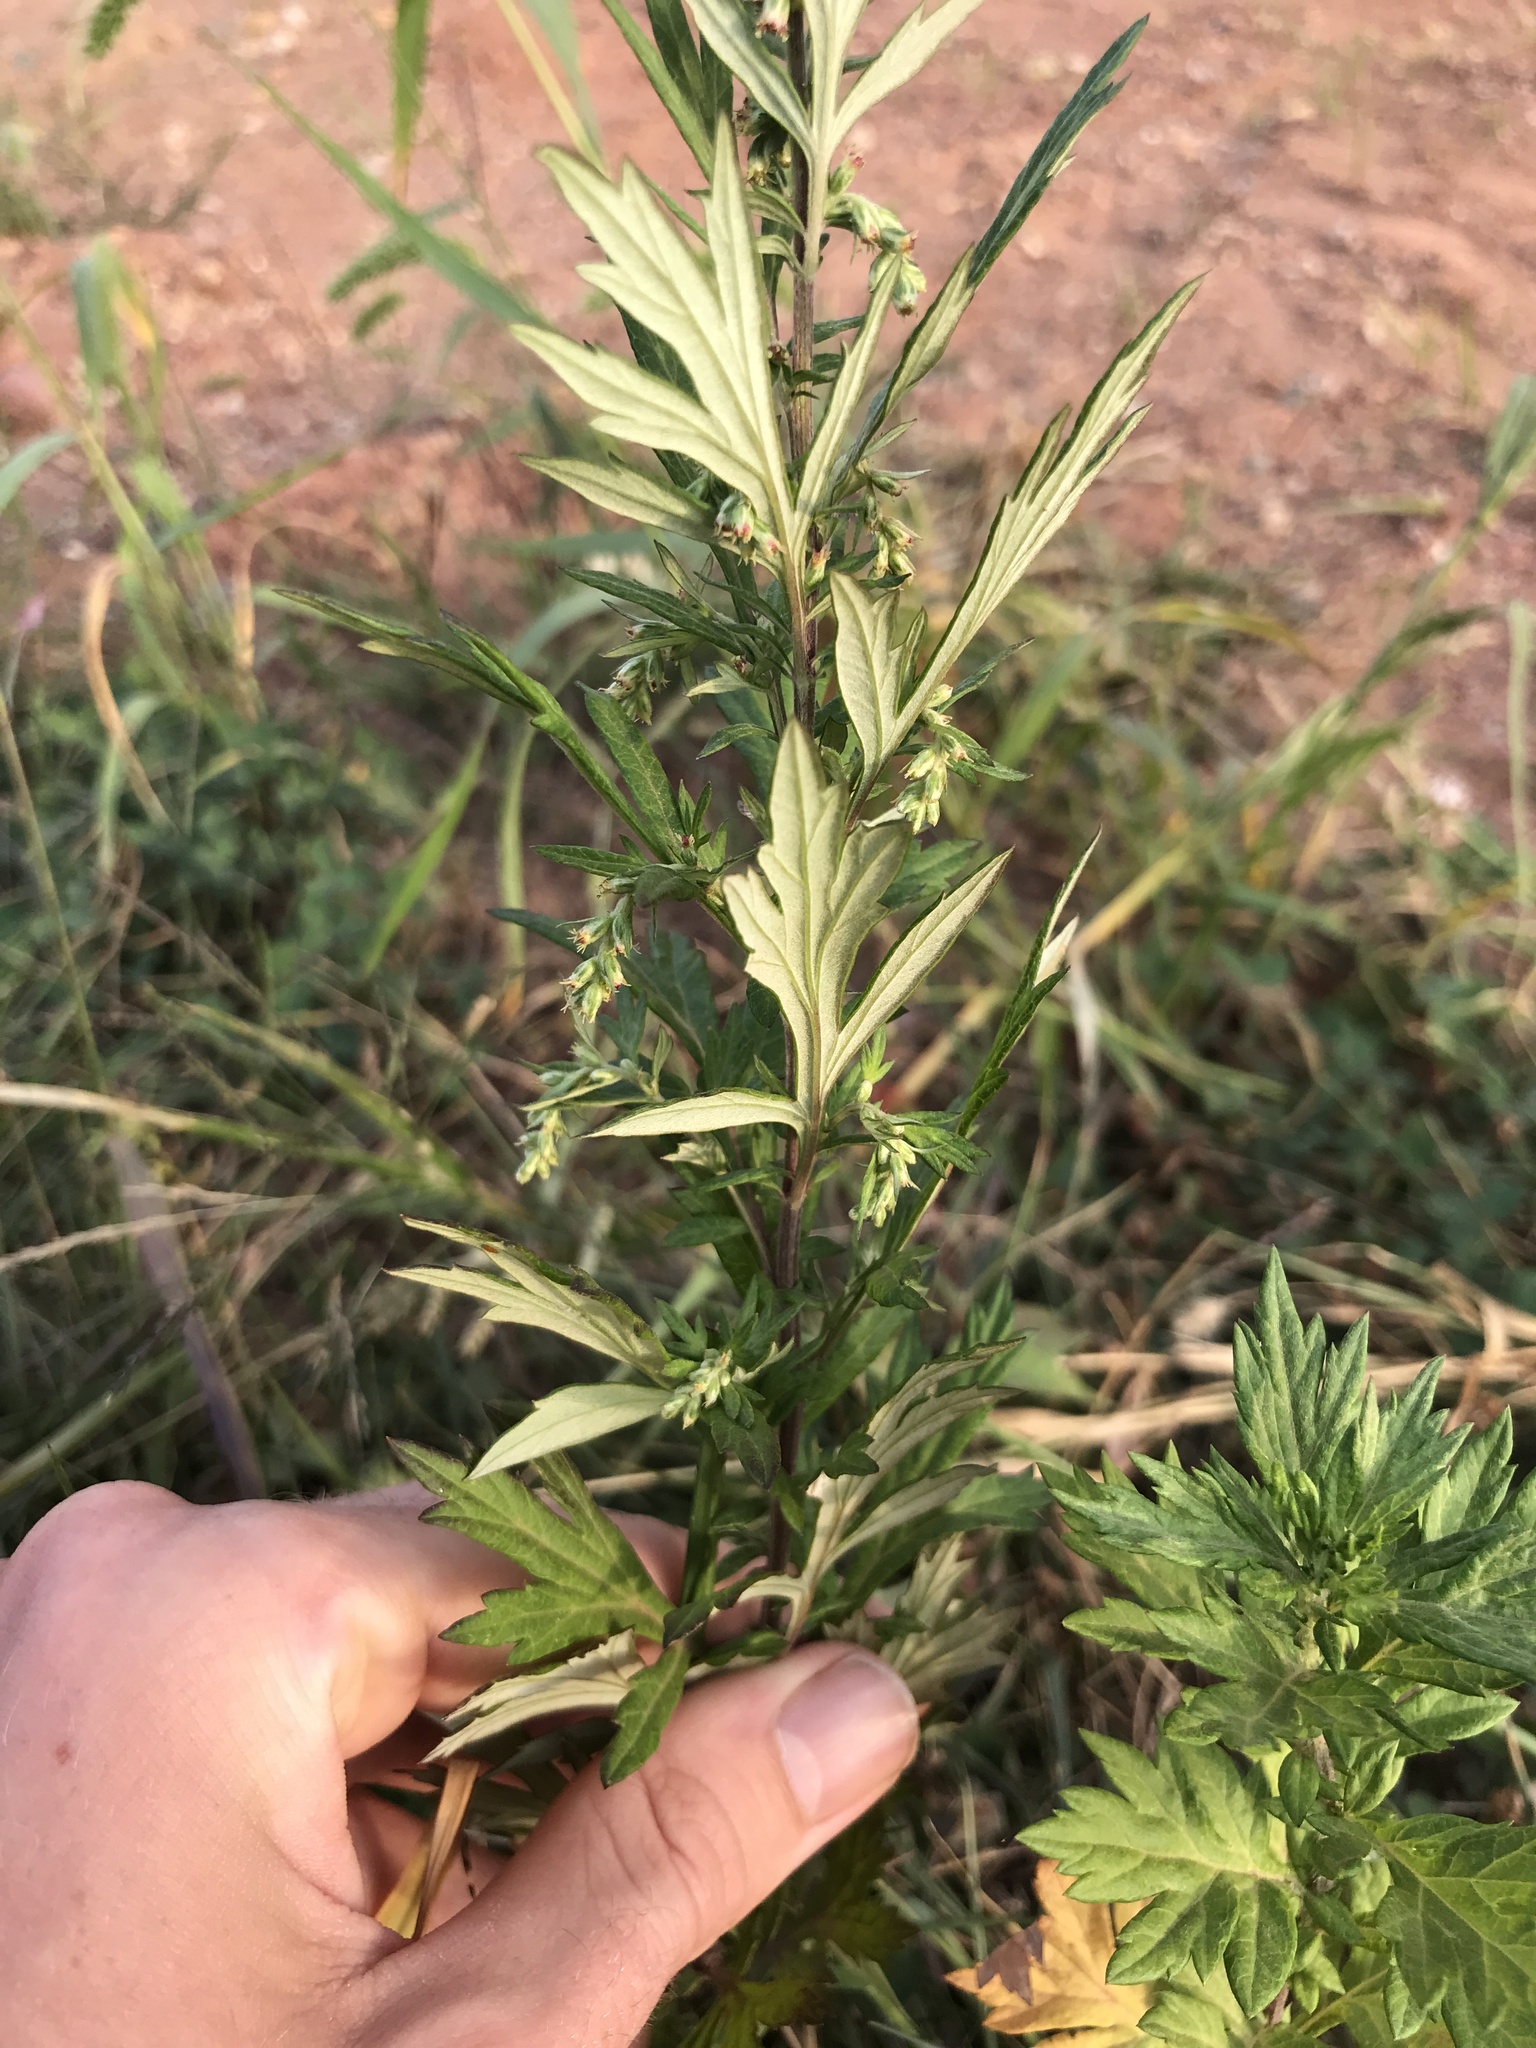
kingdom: Plantae
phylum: Tracheophyta
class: Magnoliopsida
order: Asterales
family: Asteraceae
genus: Artemisia
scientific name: Artemisia vulgaris
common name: Mugwort
